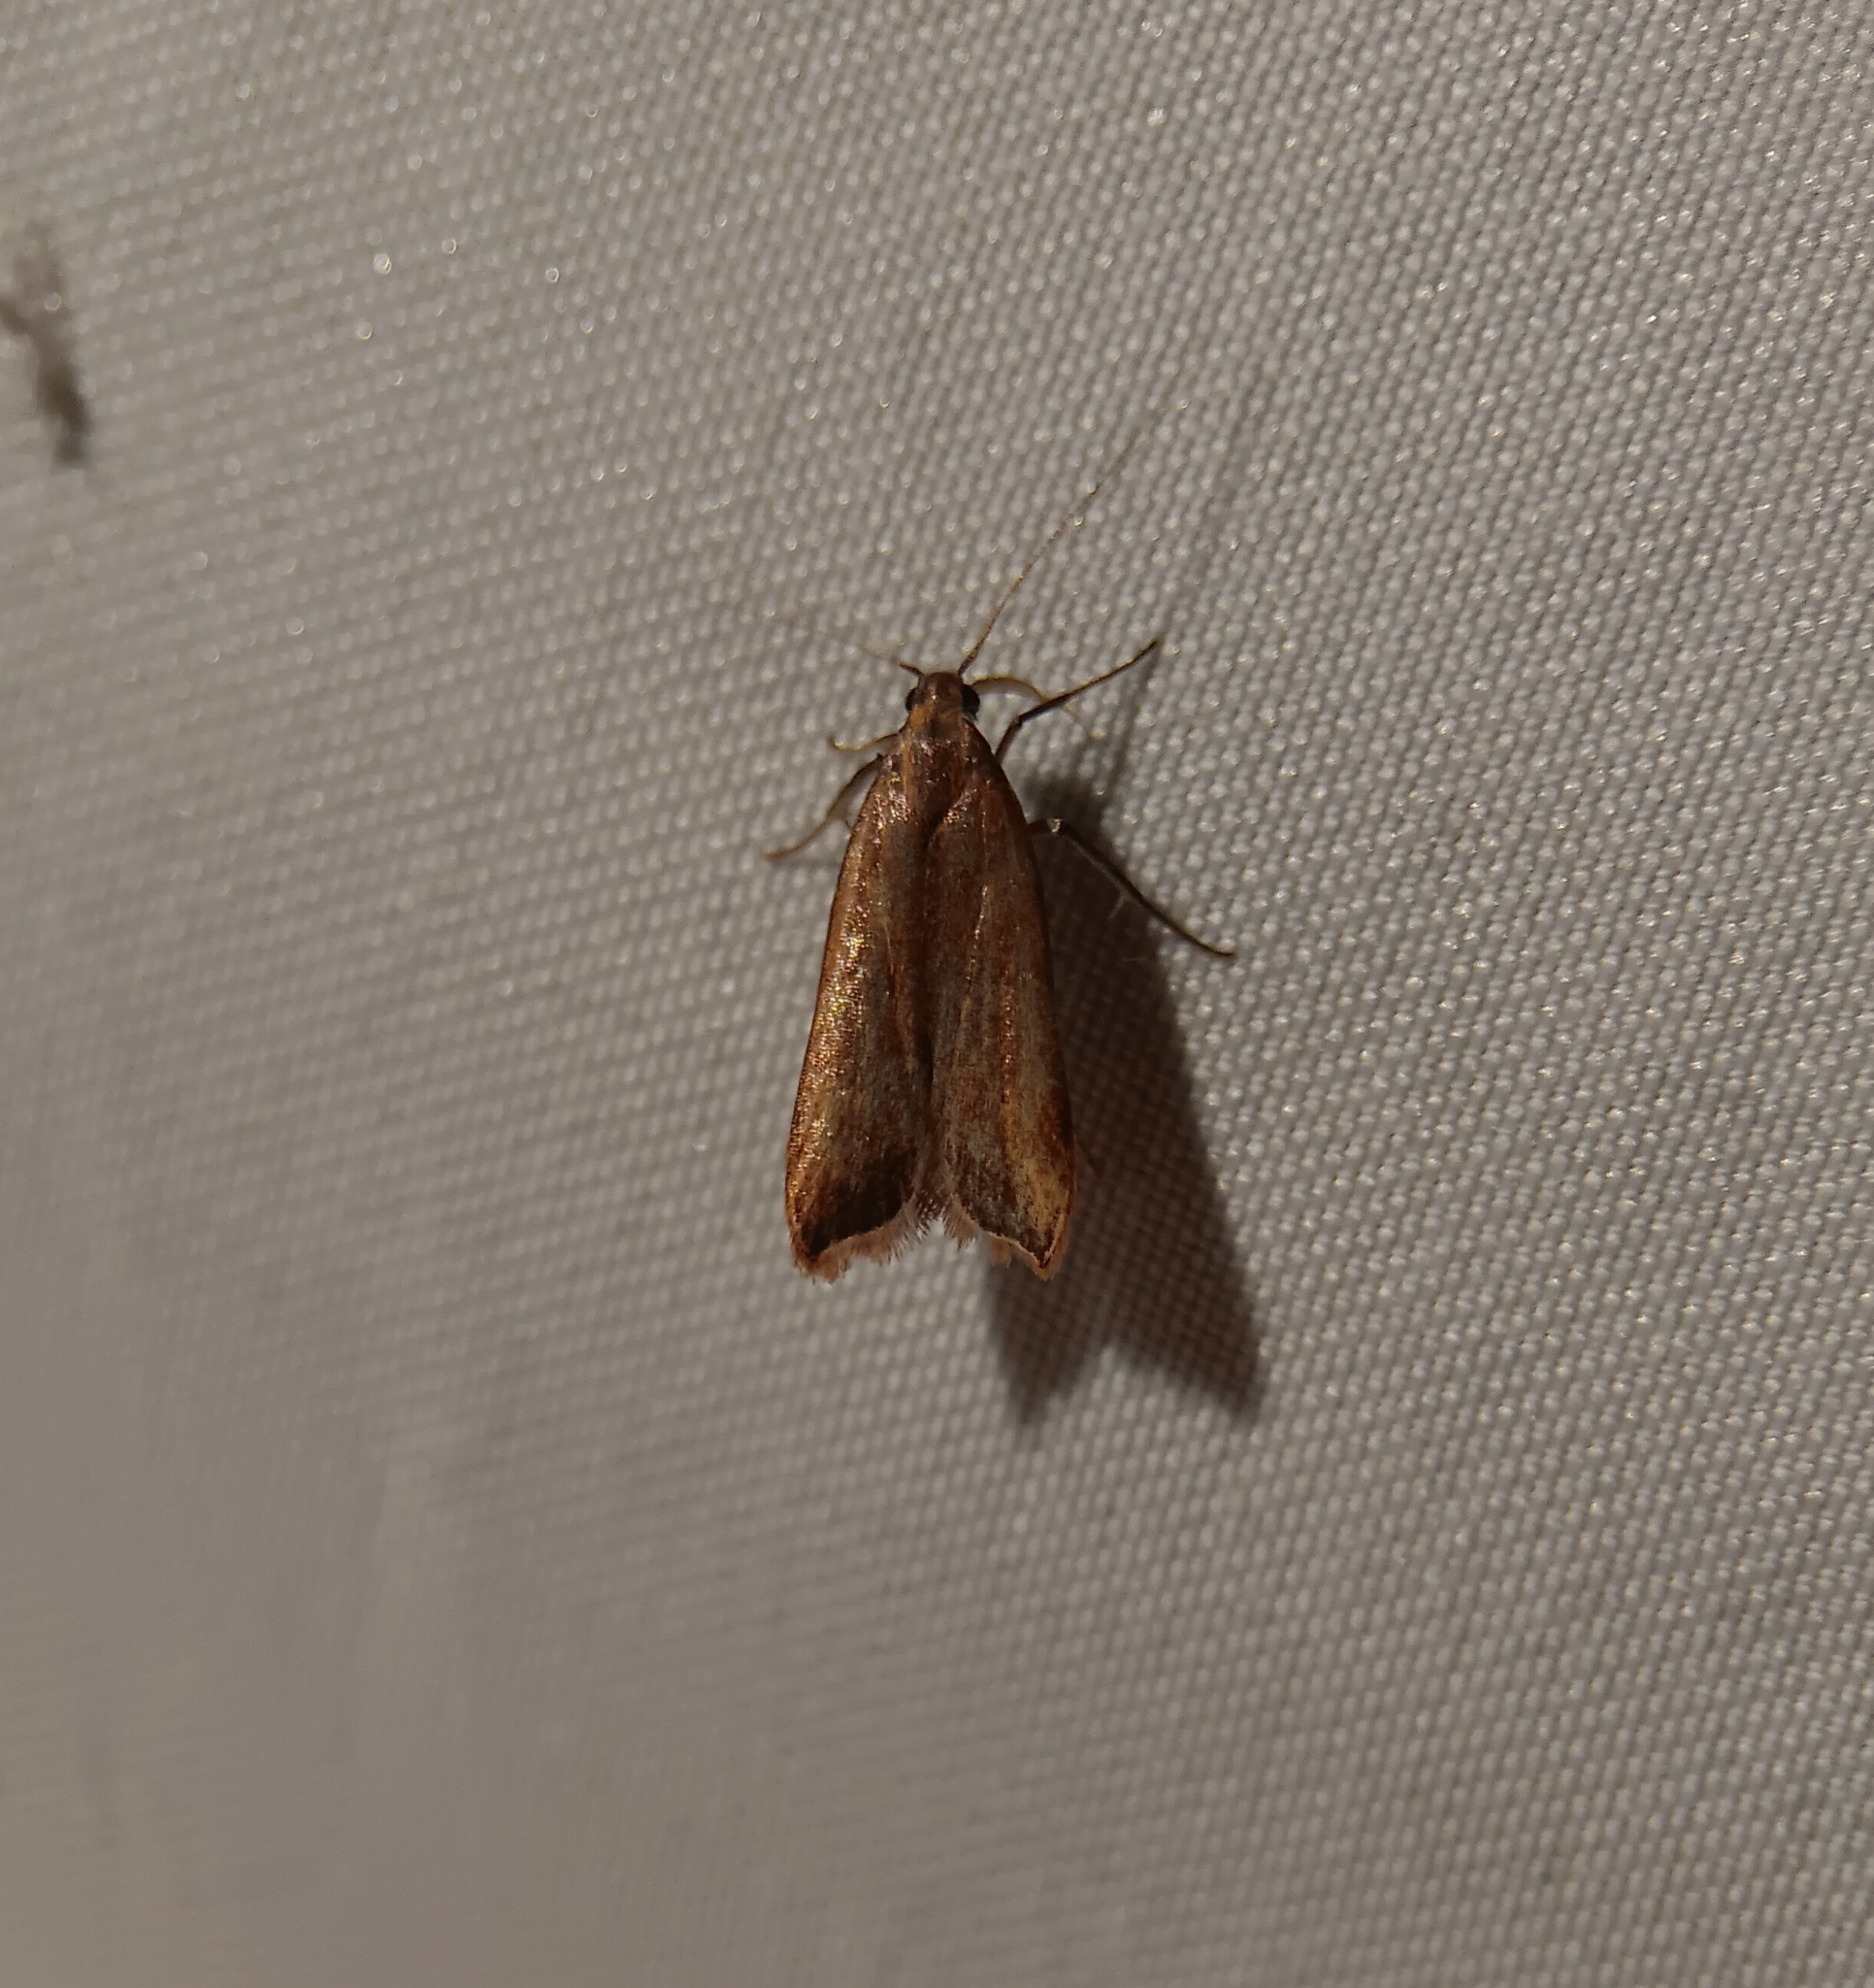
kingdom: Animalia
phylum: Arthropoda
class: Insecta
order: Lepidoptera
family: Gelechiidae
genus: Dichomeris
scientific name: Dichomeris heriguronis
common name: Black-edged dichomeris moth
